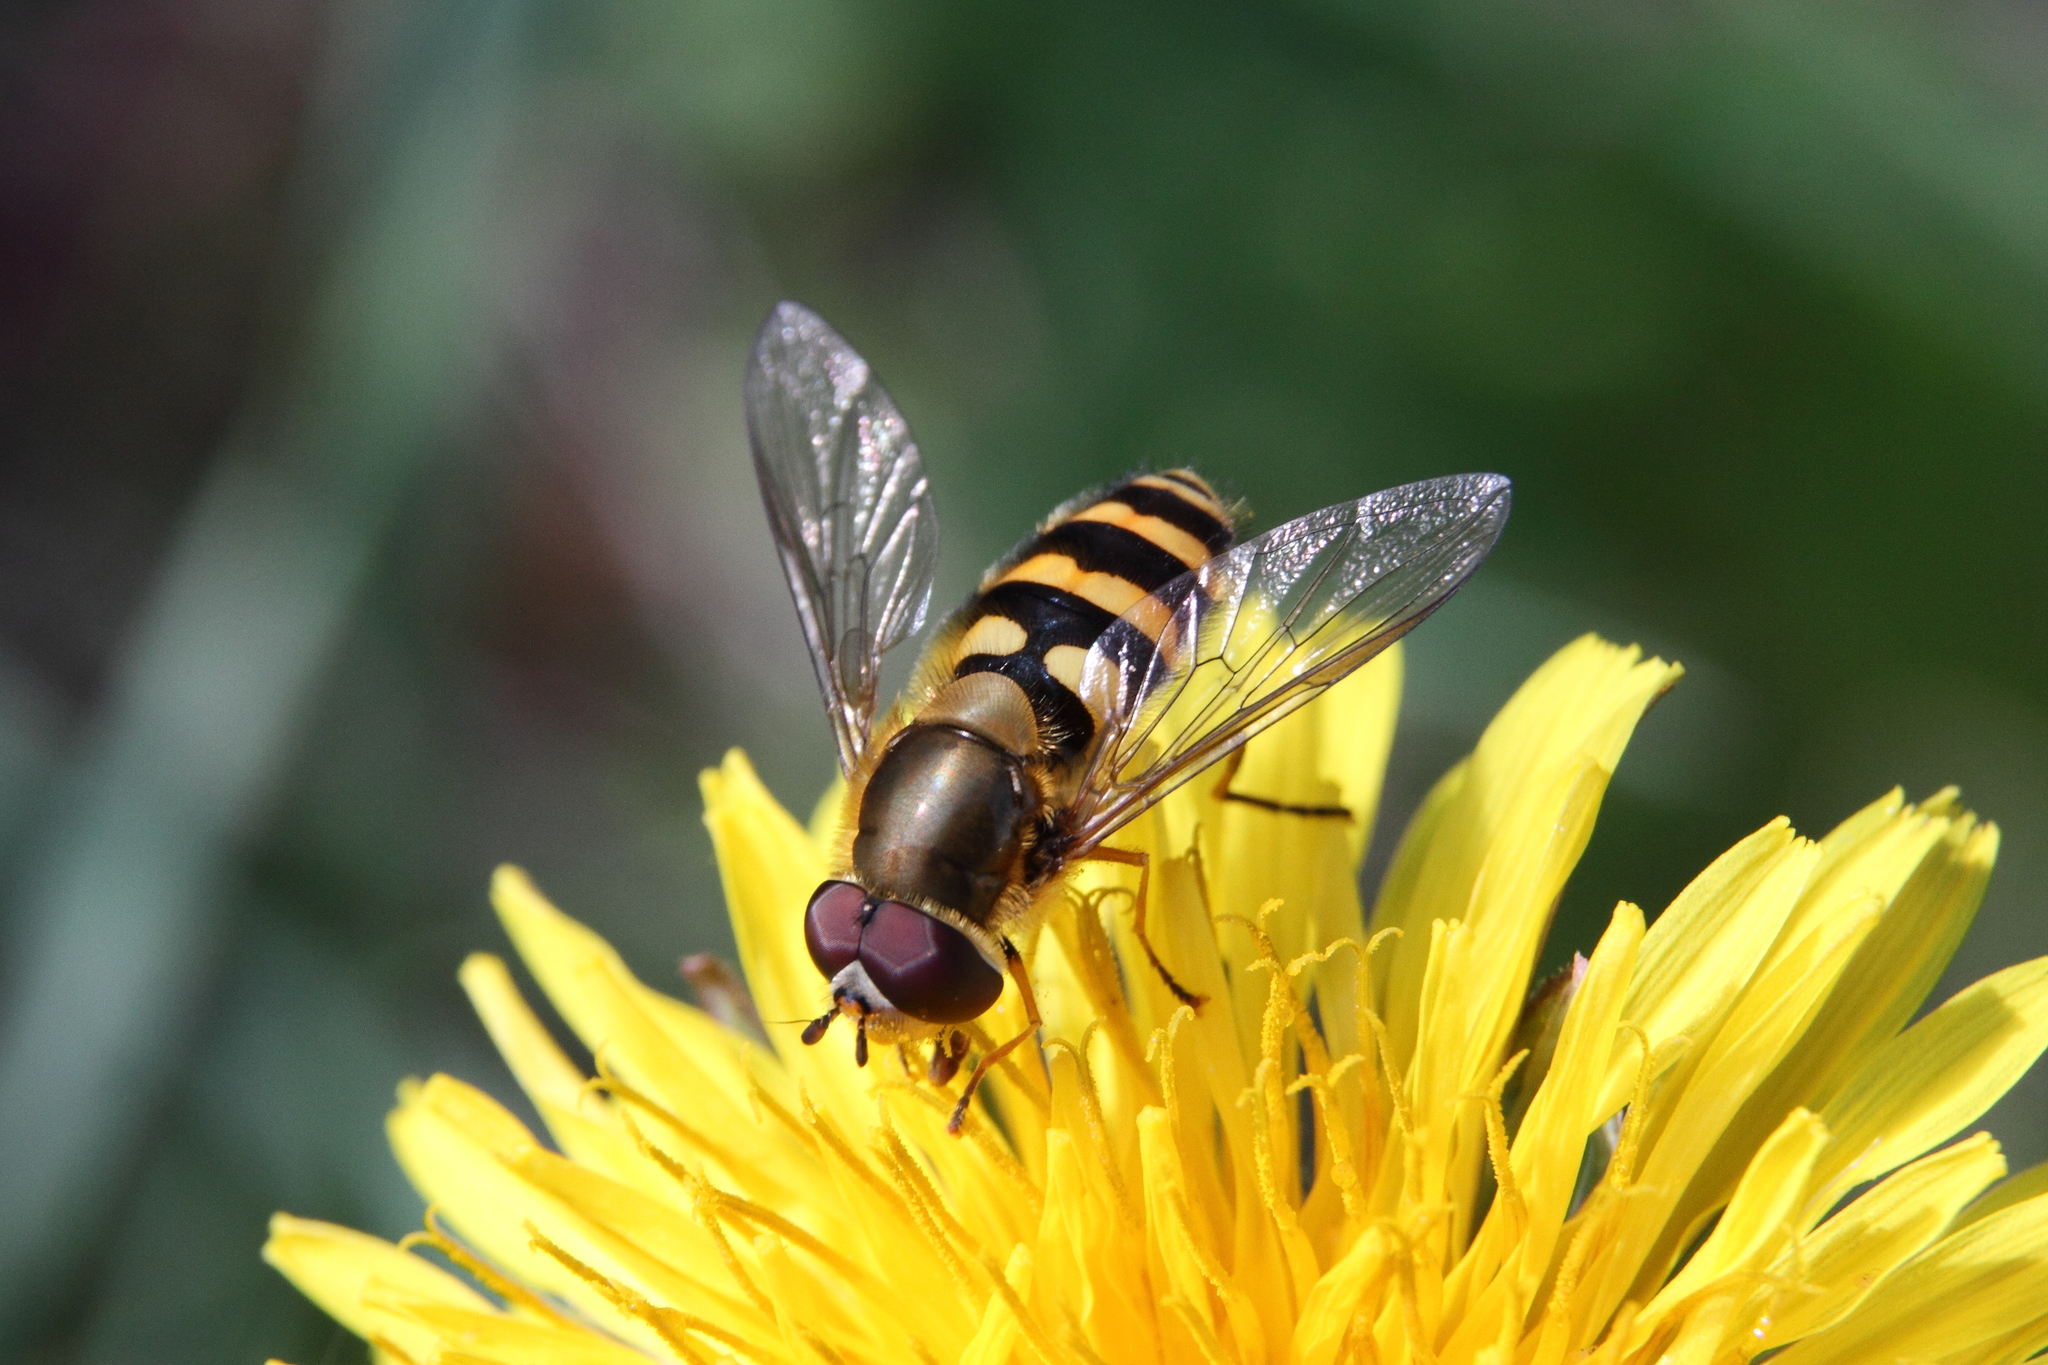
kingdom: Animalia
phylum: Arthropoda
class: Insecta
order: Diptera
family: Syrphidae
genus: Syrphus
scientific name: Syrphus
